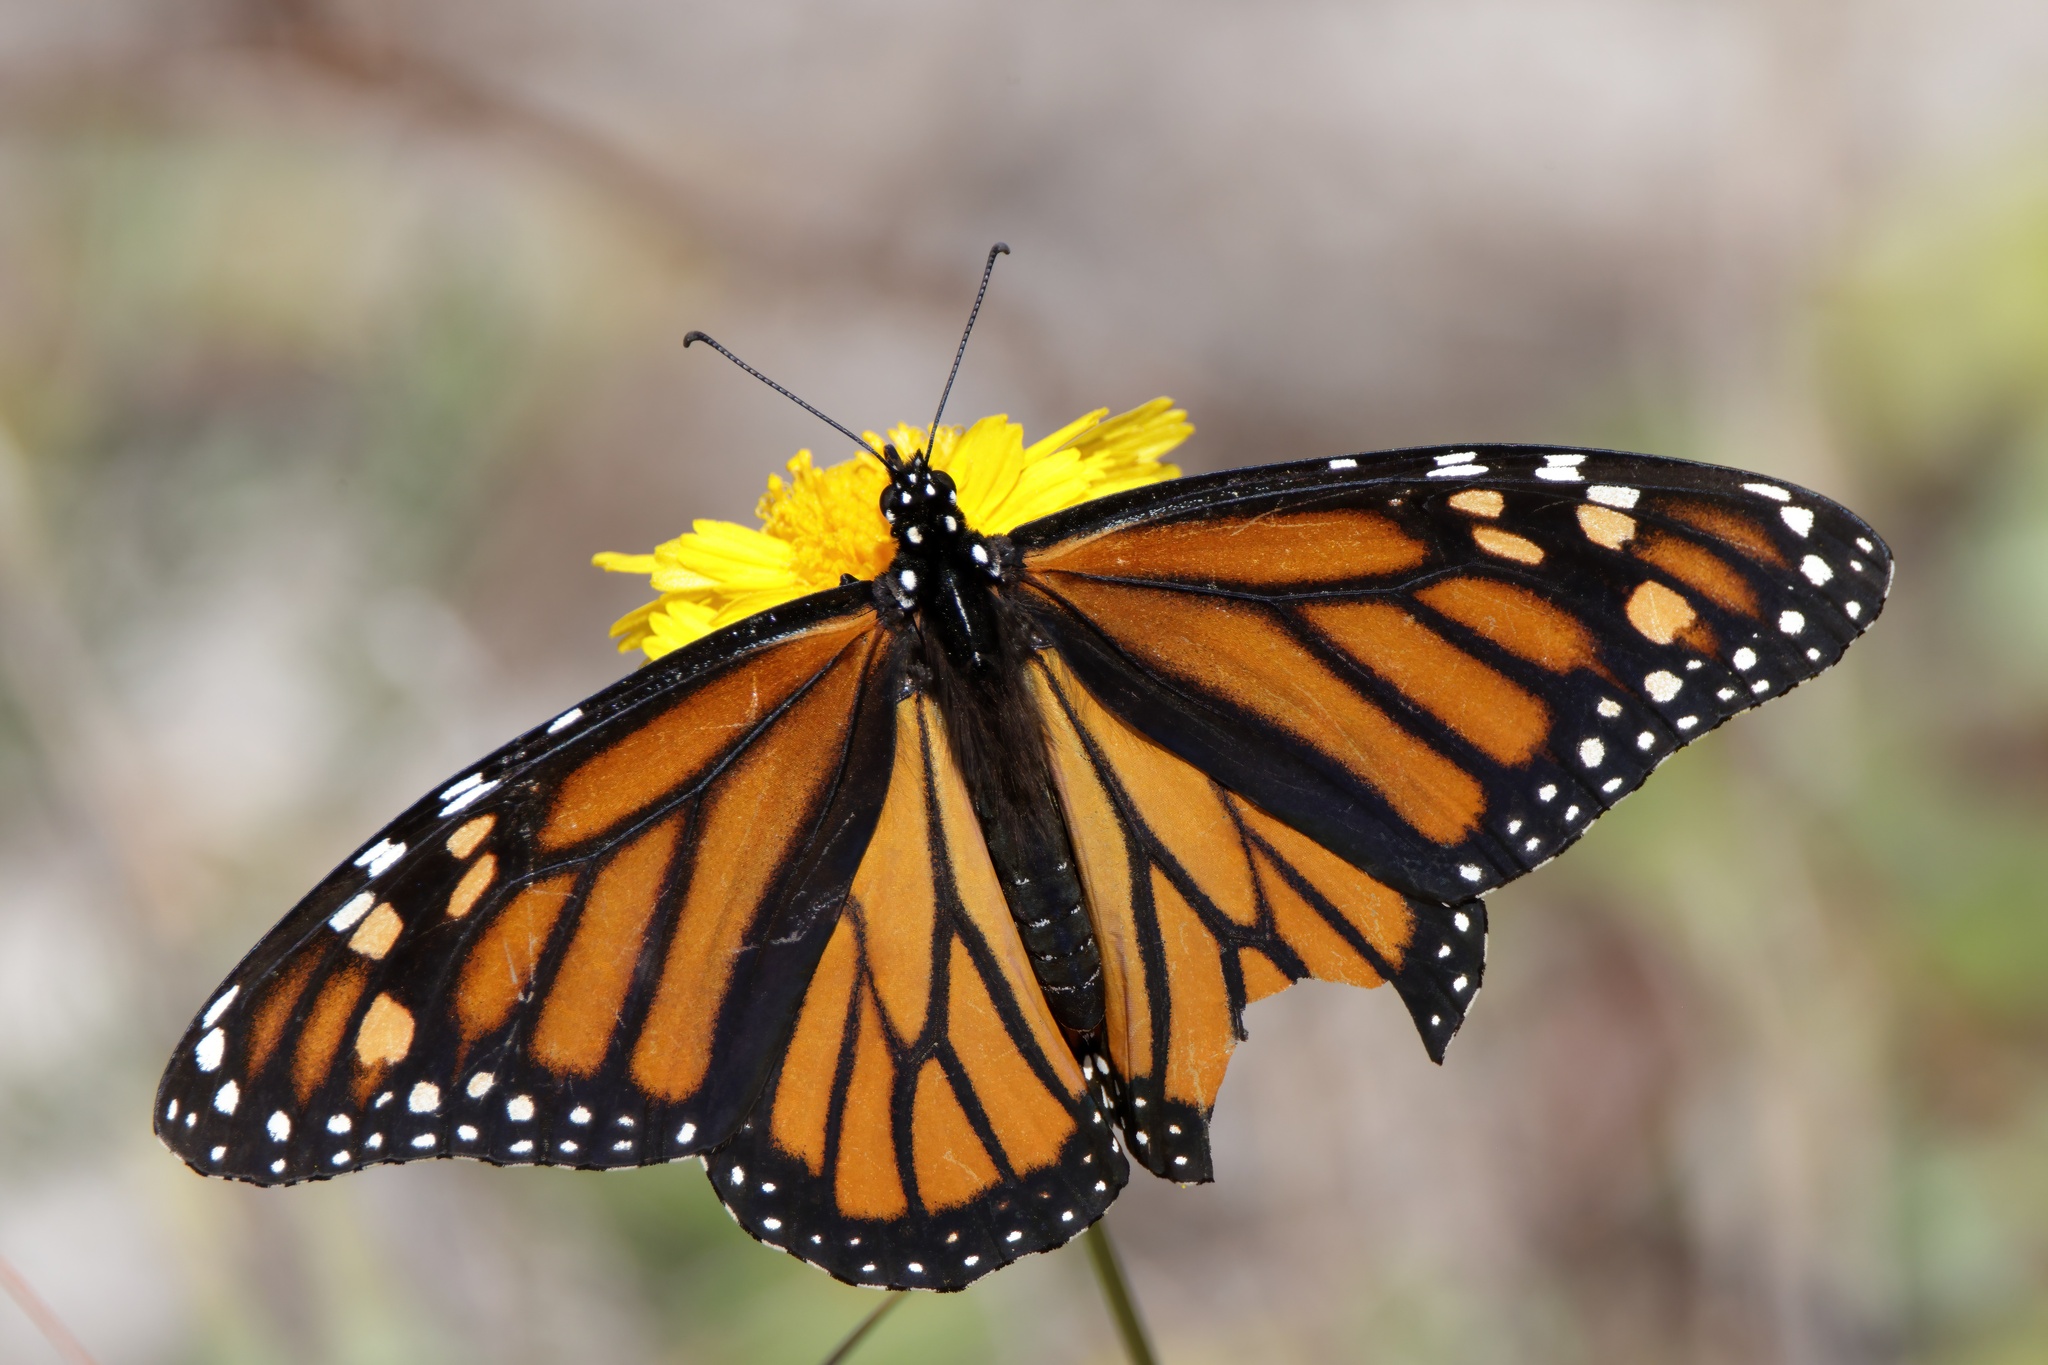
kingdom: Animalia
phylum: Arthropoda
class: Insecta
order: Lepidoptera
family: Nymphalidae
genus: Danaus
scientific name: Danaus plexippus
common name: Monarch
